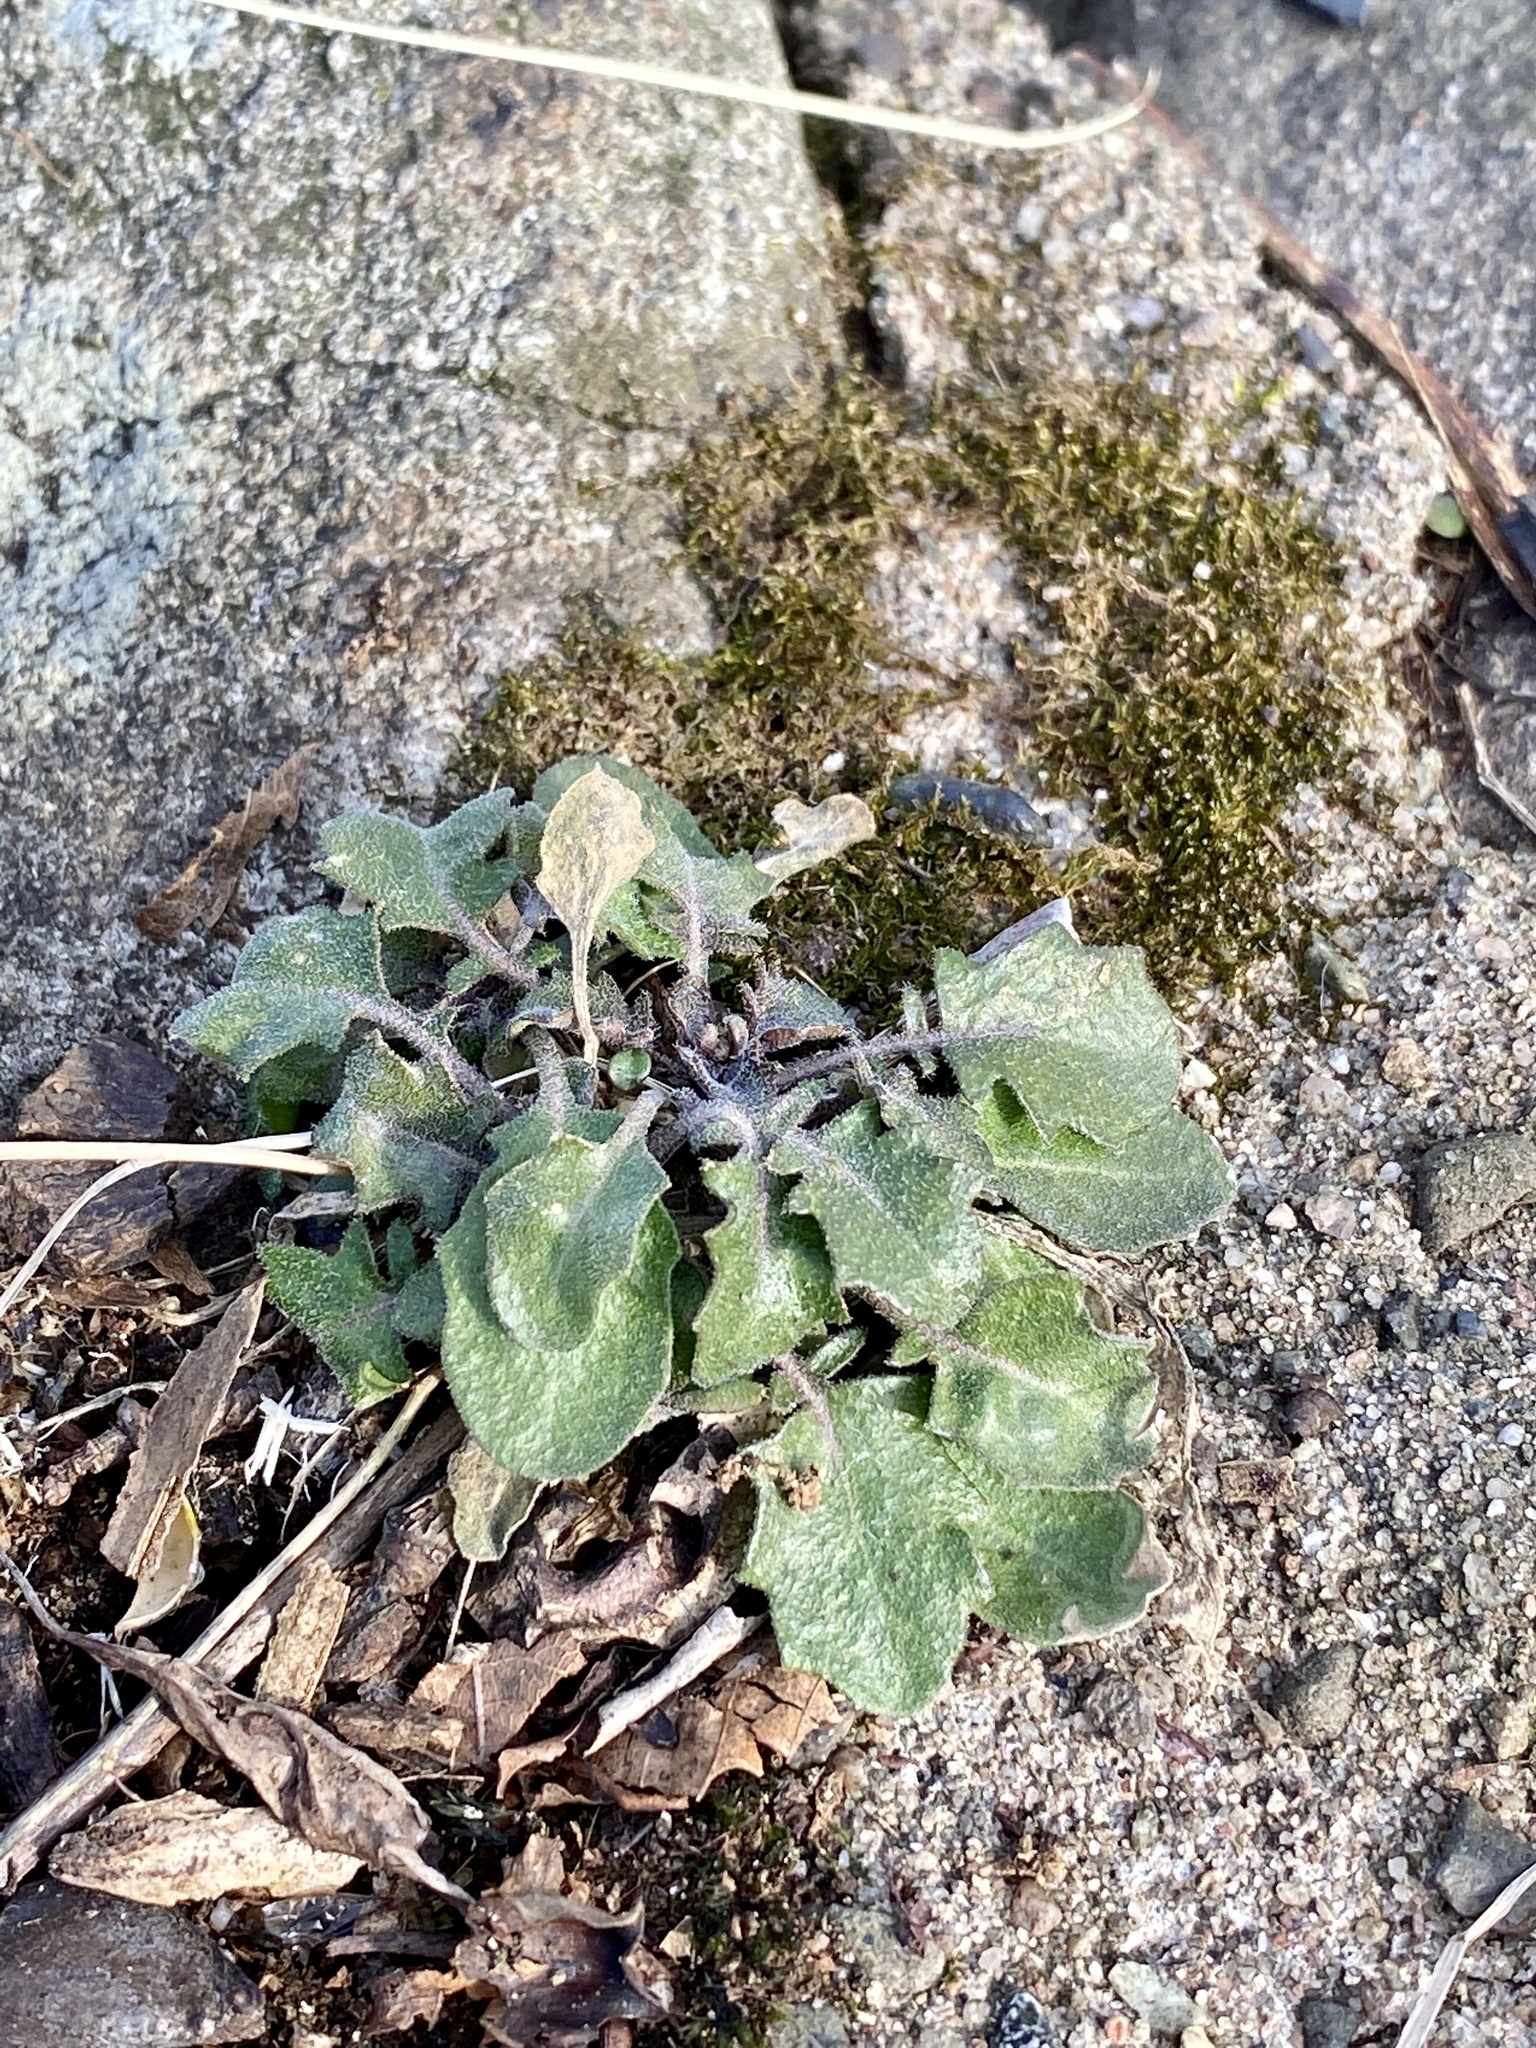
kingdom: Plantae
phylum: Tracheophyta
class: Magnoliopsida
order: Brassicales
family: Brassicaceae
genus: Arabidopsis
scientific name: Arabidopsis lyrata
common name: Lyrate rockcress
